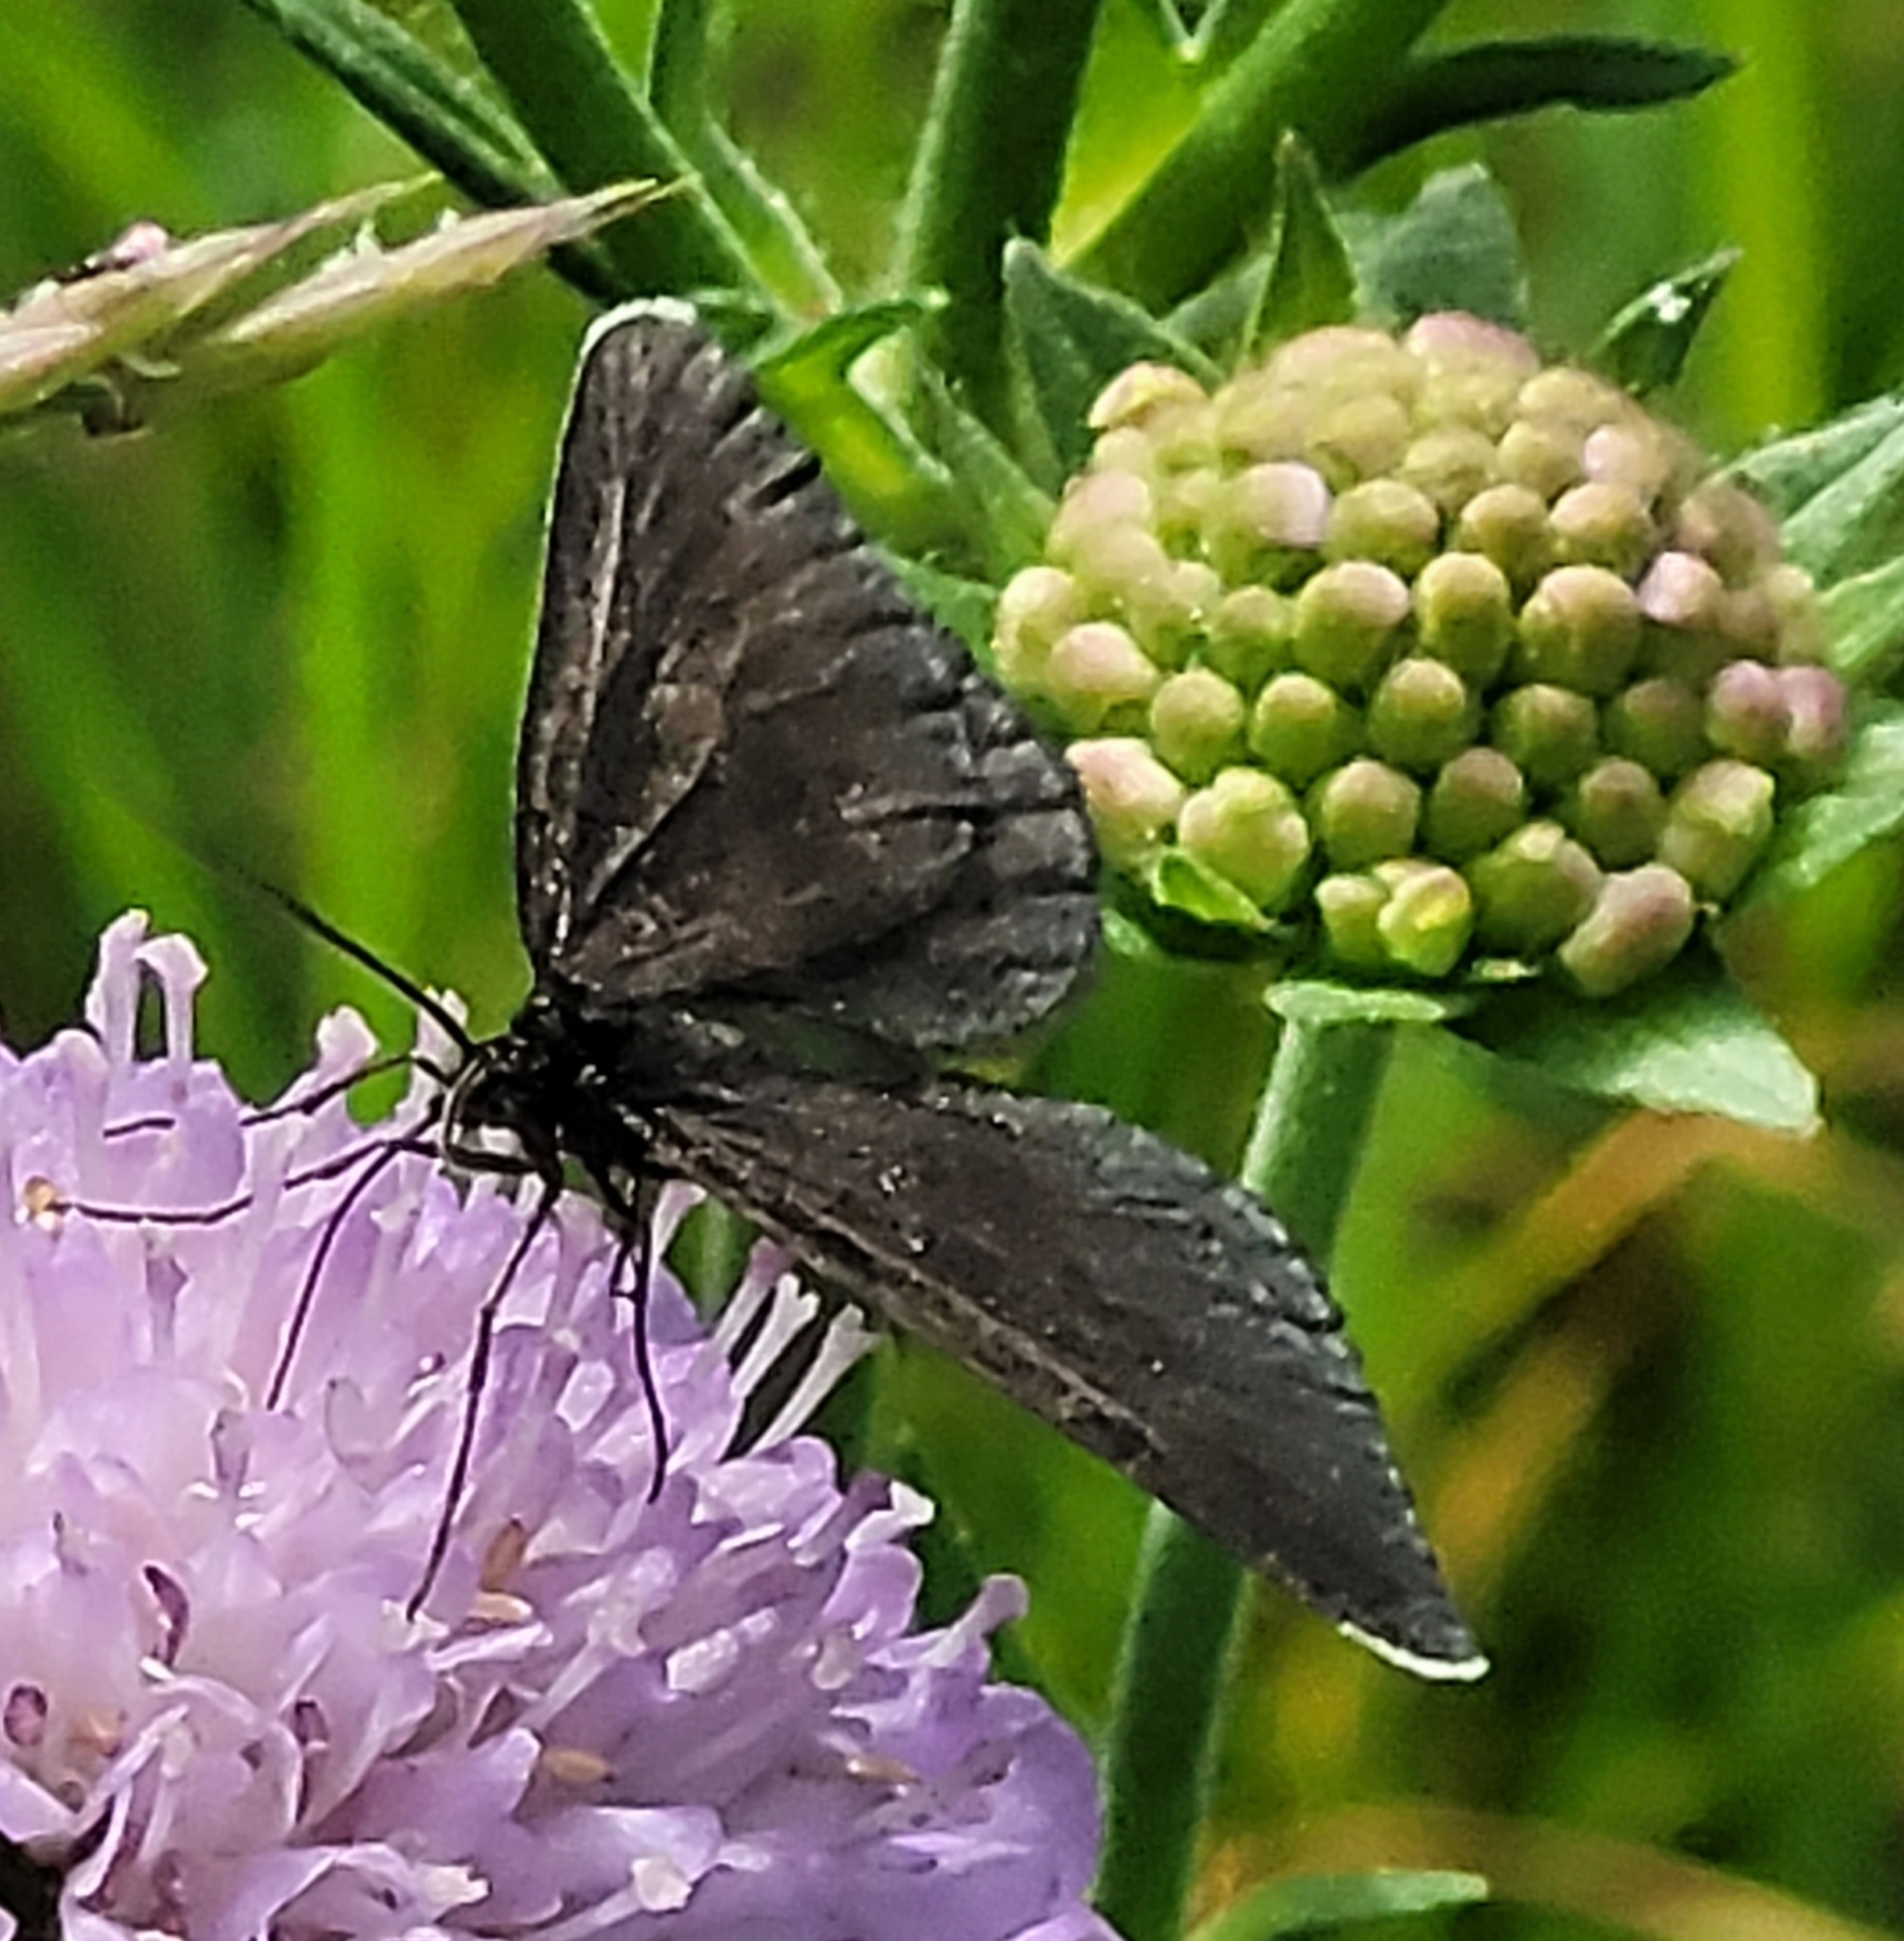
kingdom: Animalia
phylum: Arthropoda
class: Insecta
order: Lepidoptera
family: Geometridae
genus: Odezia
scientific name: Odezia atrata
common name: Chimney sweeper
